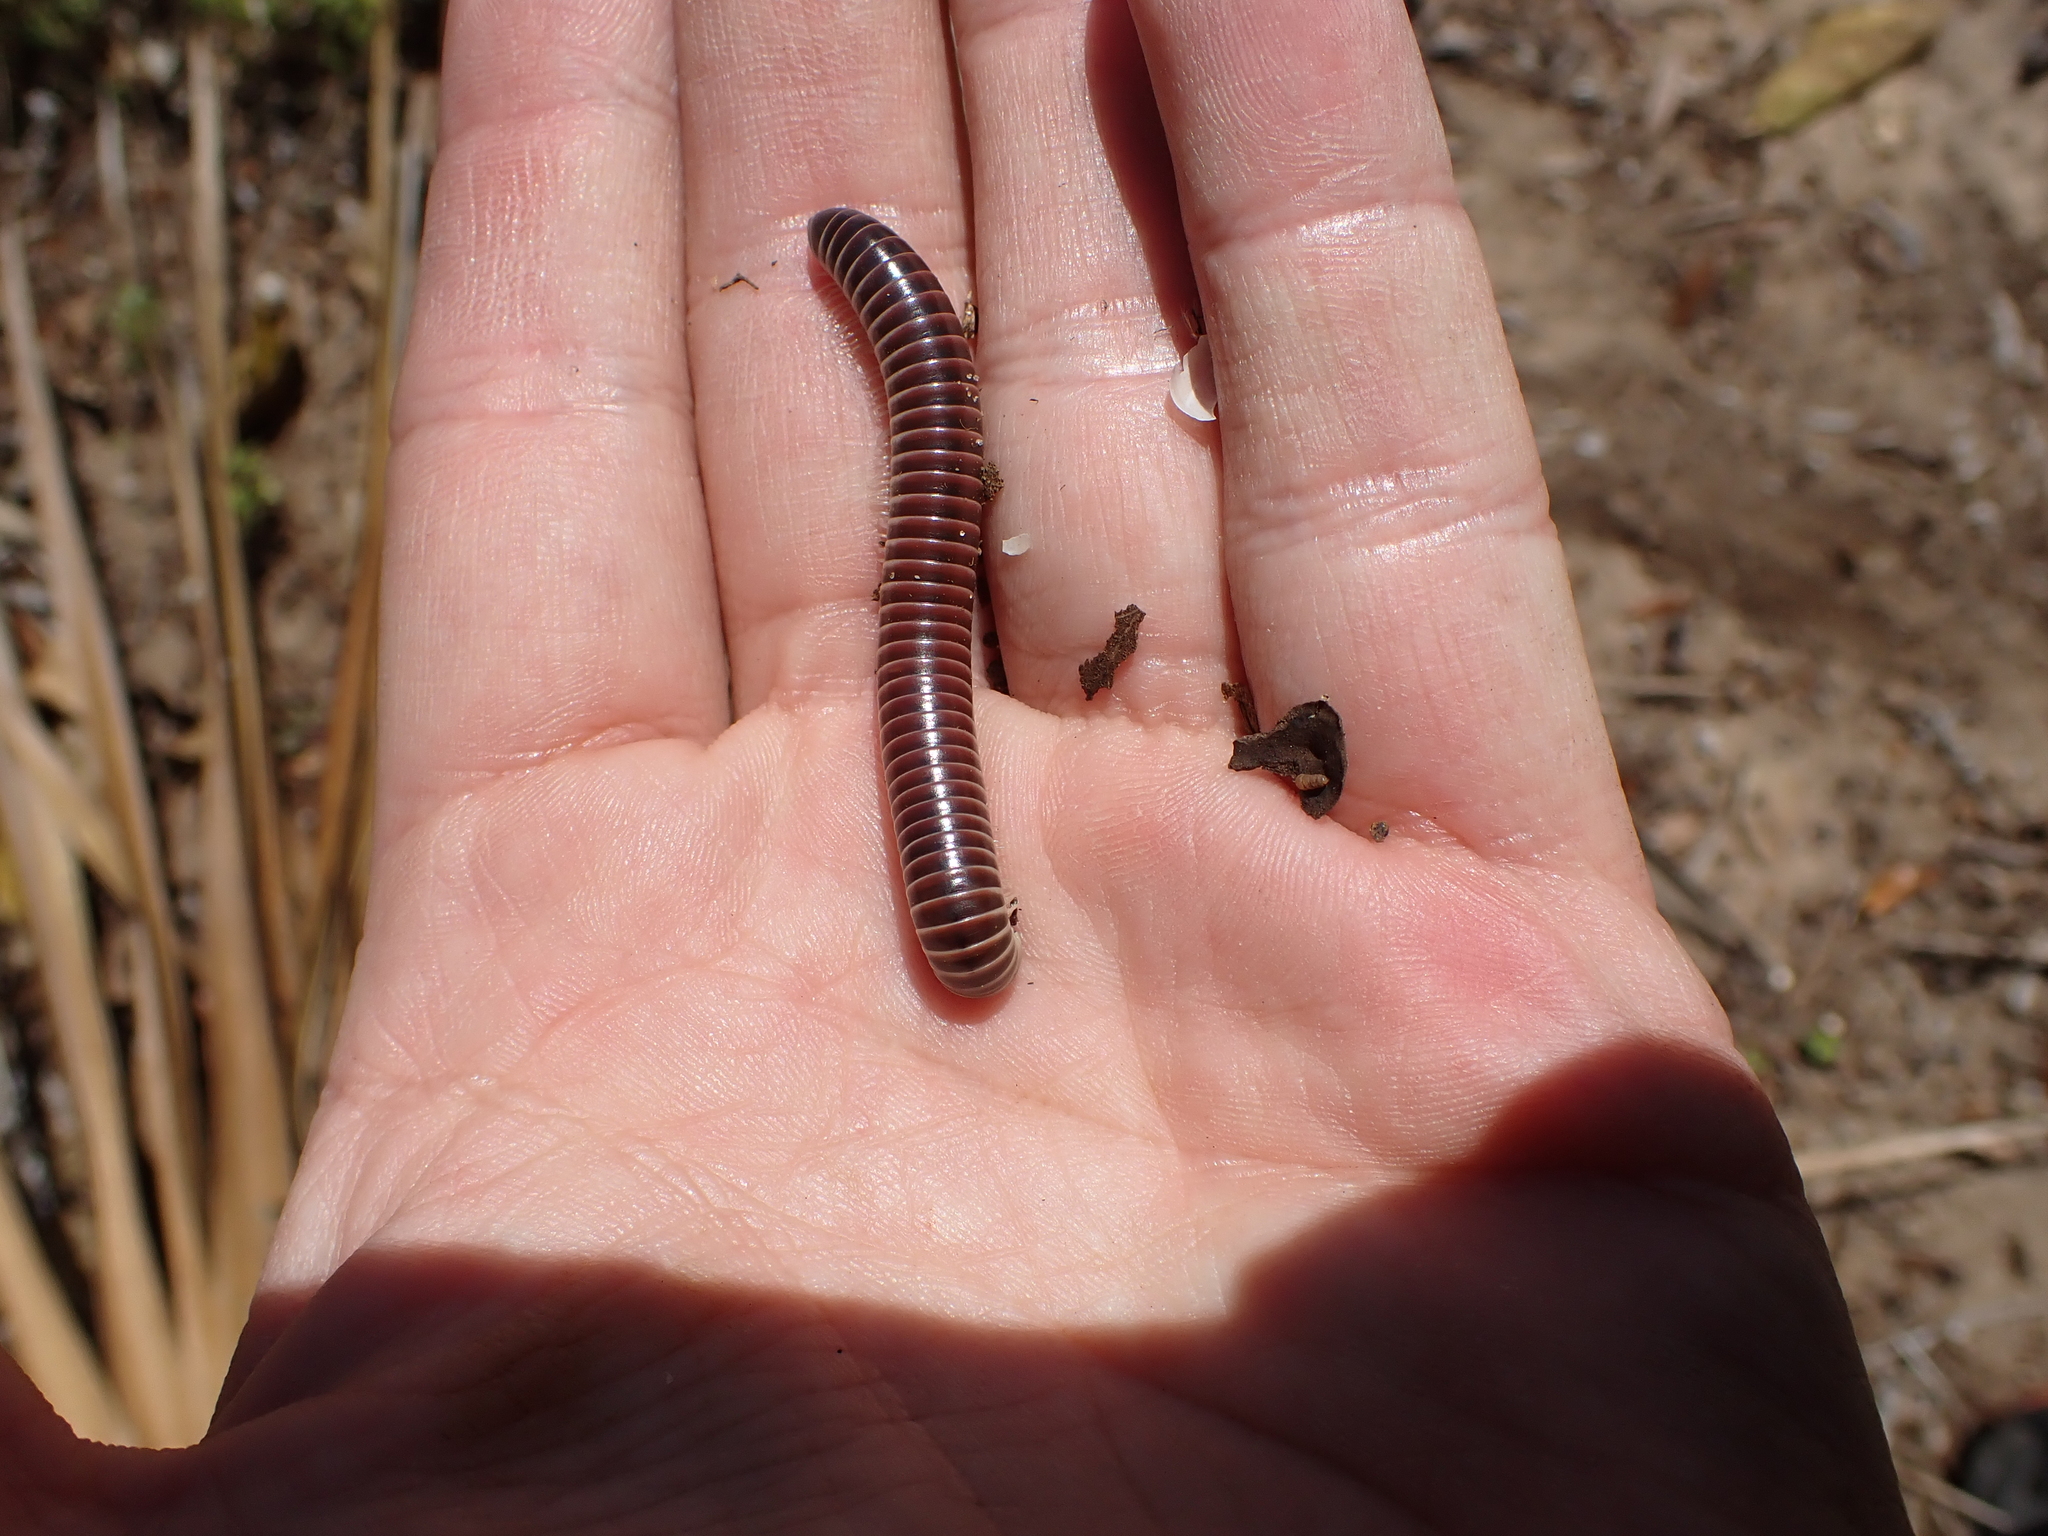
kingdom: Animalia
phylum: Arthropoda
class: Diplopoda
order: Spirobolida
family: Spirobolidae
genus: Chicobolus
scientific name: Chicobolus spinigerus
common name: Florida ivory millipede
